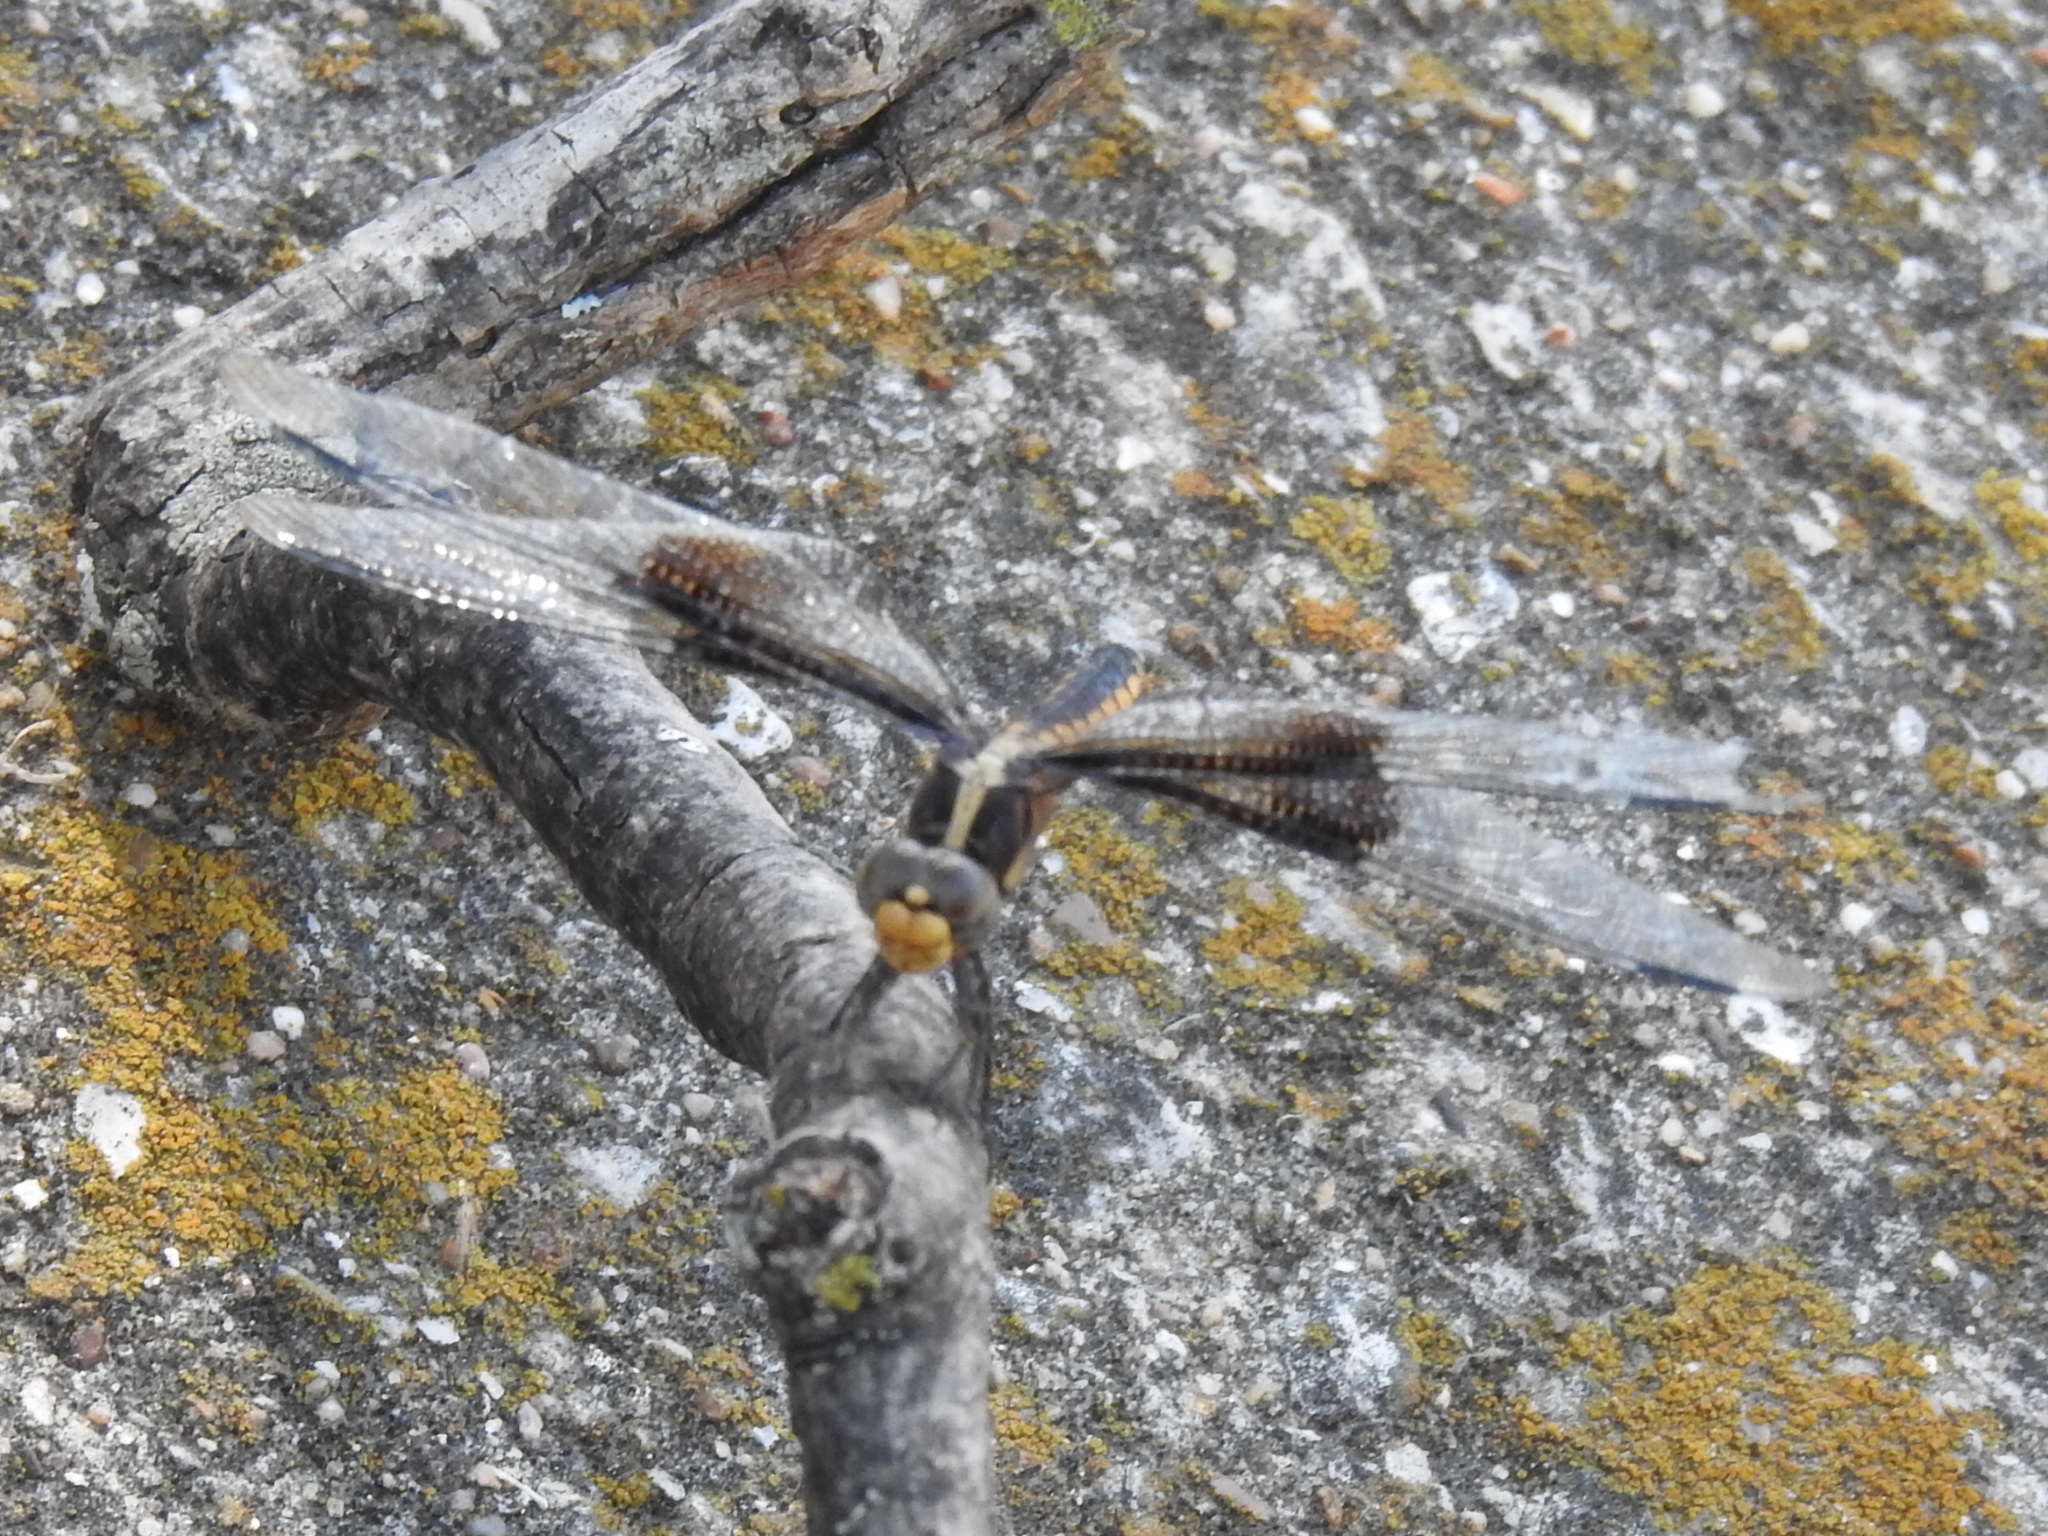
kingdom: Animalia
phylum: Arthropoda
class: Insecta
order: Odonata
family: Libellulidae
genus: Libellula
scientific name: Libellula luctuosa
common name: Widow skimmer
